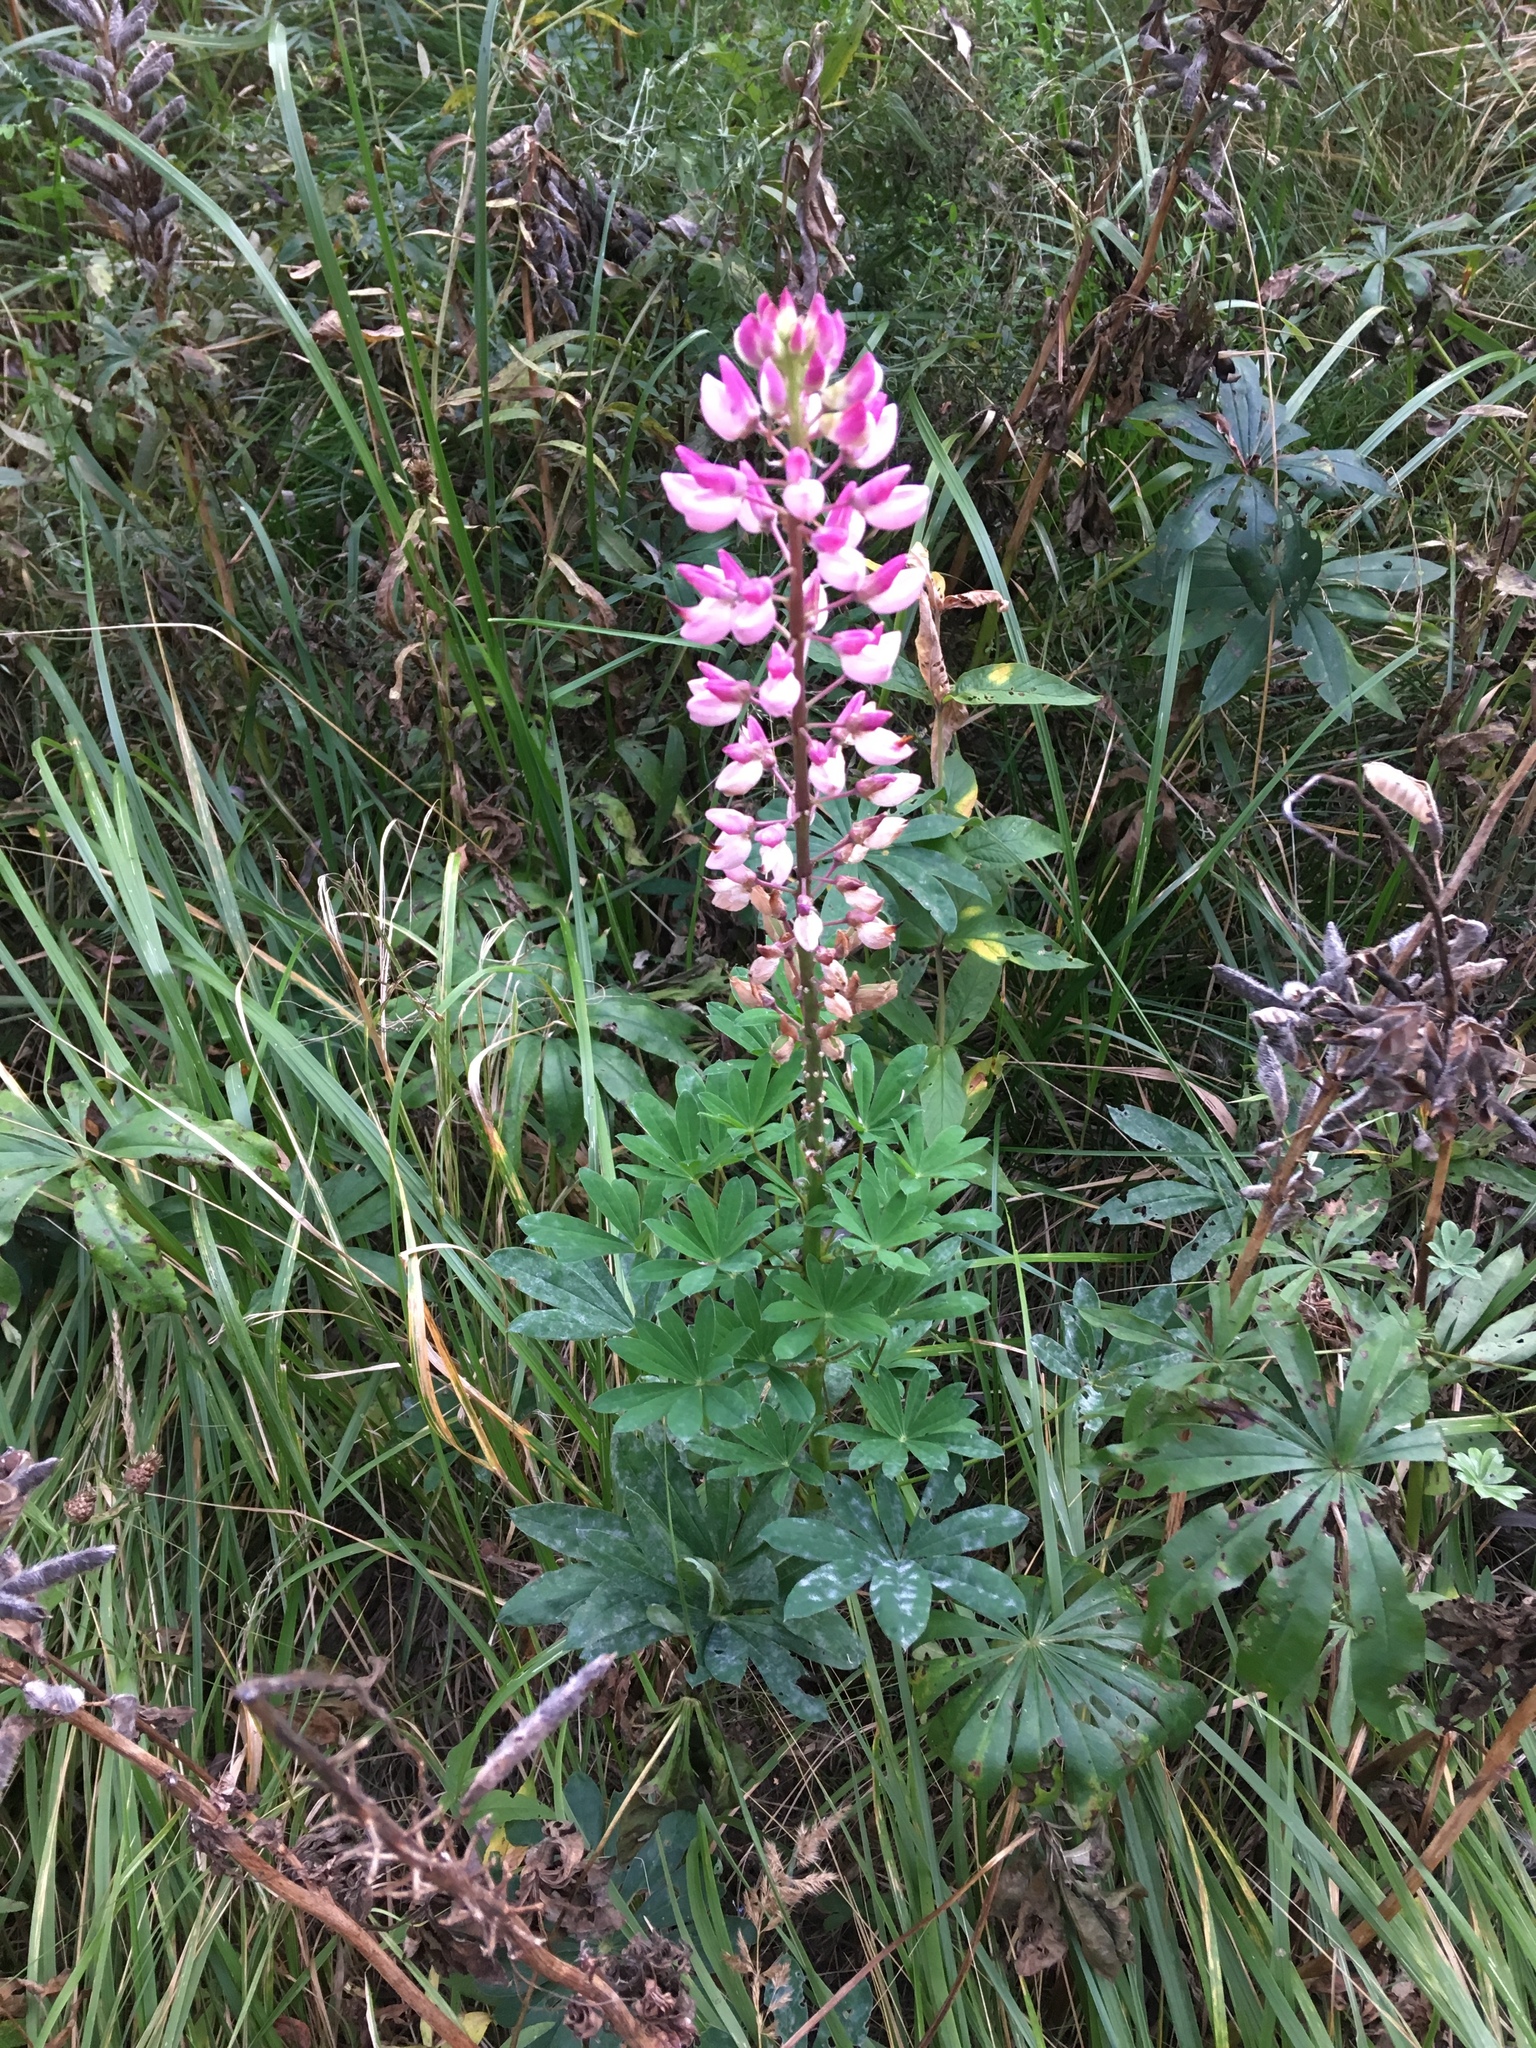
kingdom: Plantae
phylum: Tracheophyta
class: Magnoliopsida
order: Fabales
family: Fabaceae
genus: Lupinus
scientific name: Lupinus polyphyllus
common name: Garden lupin
